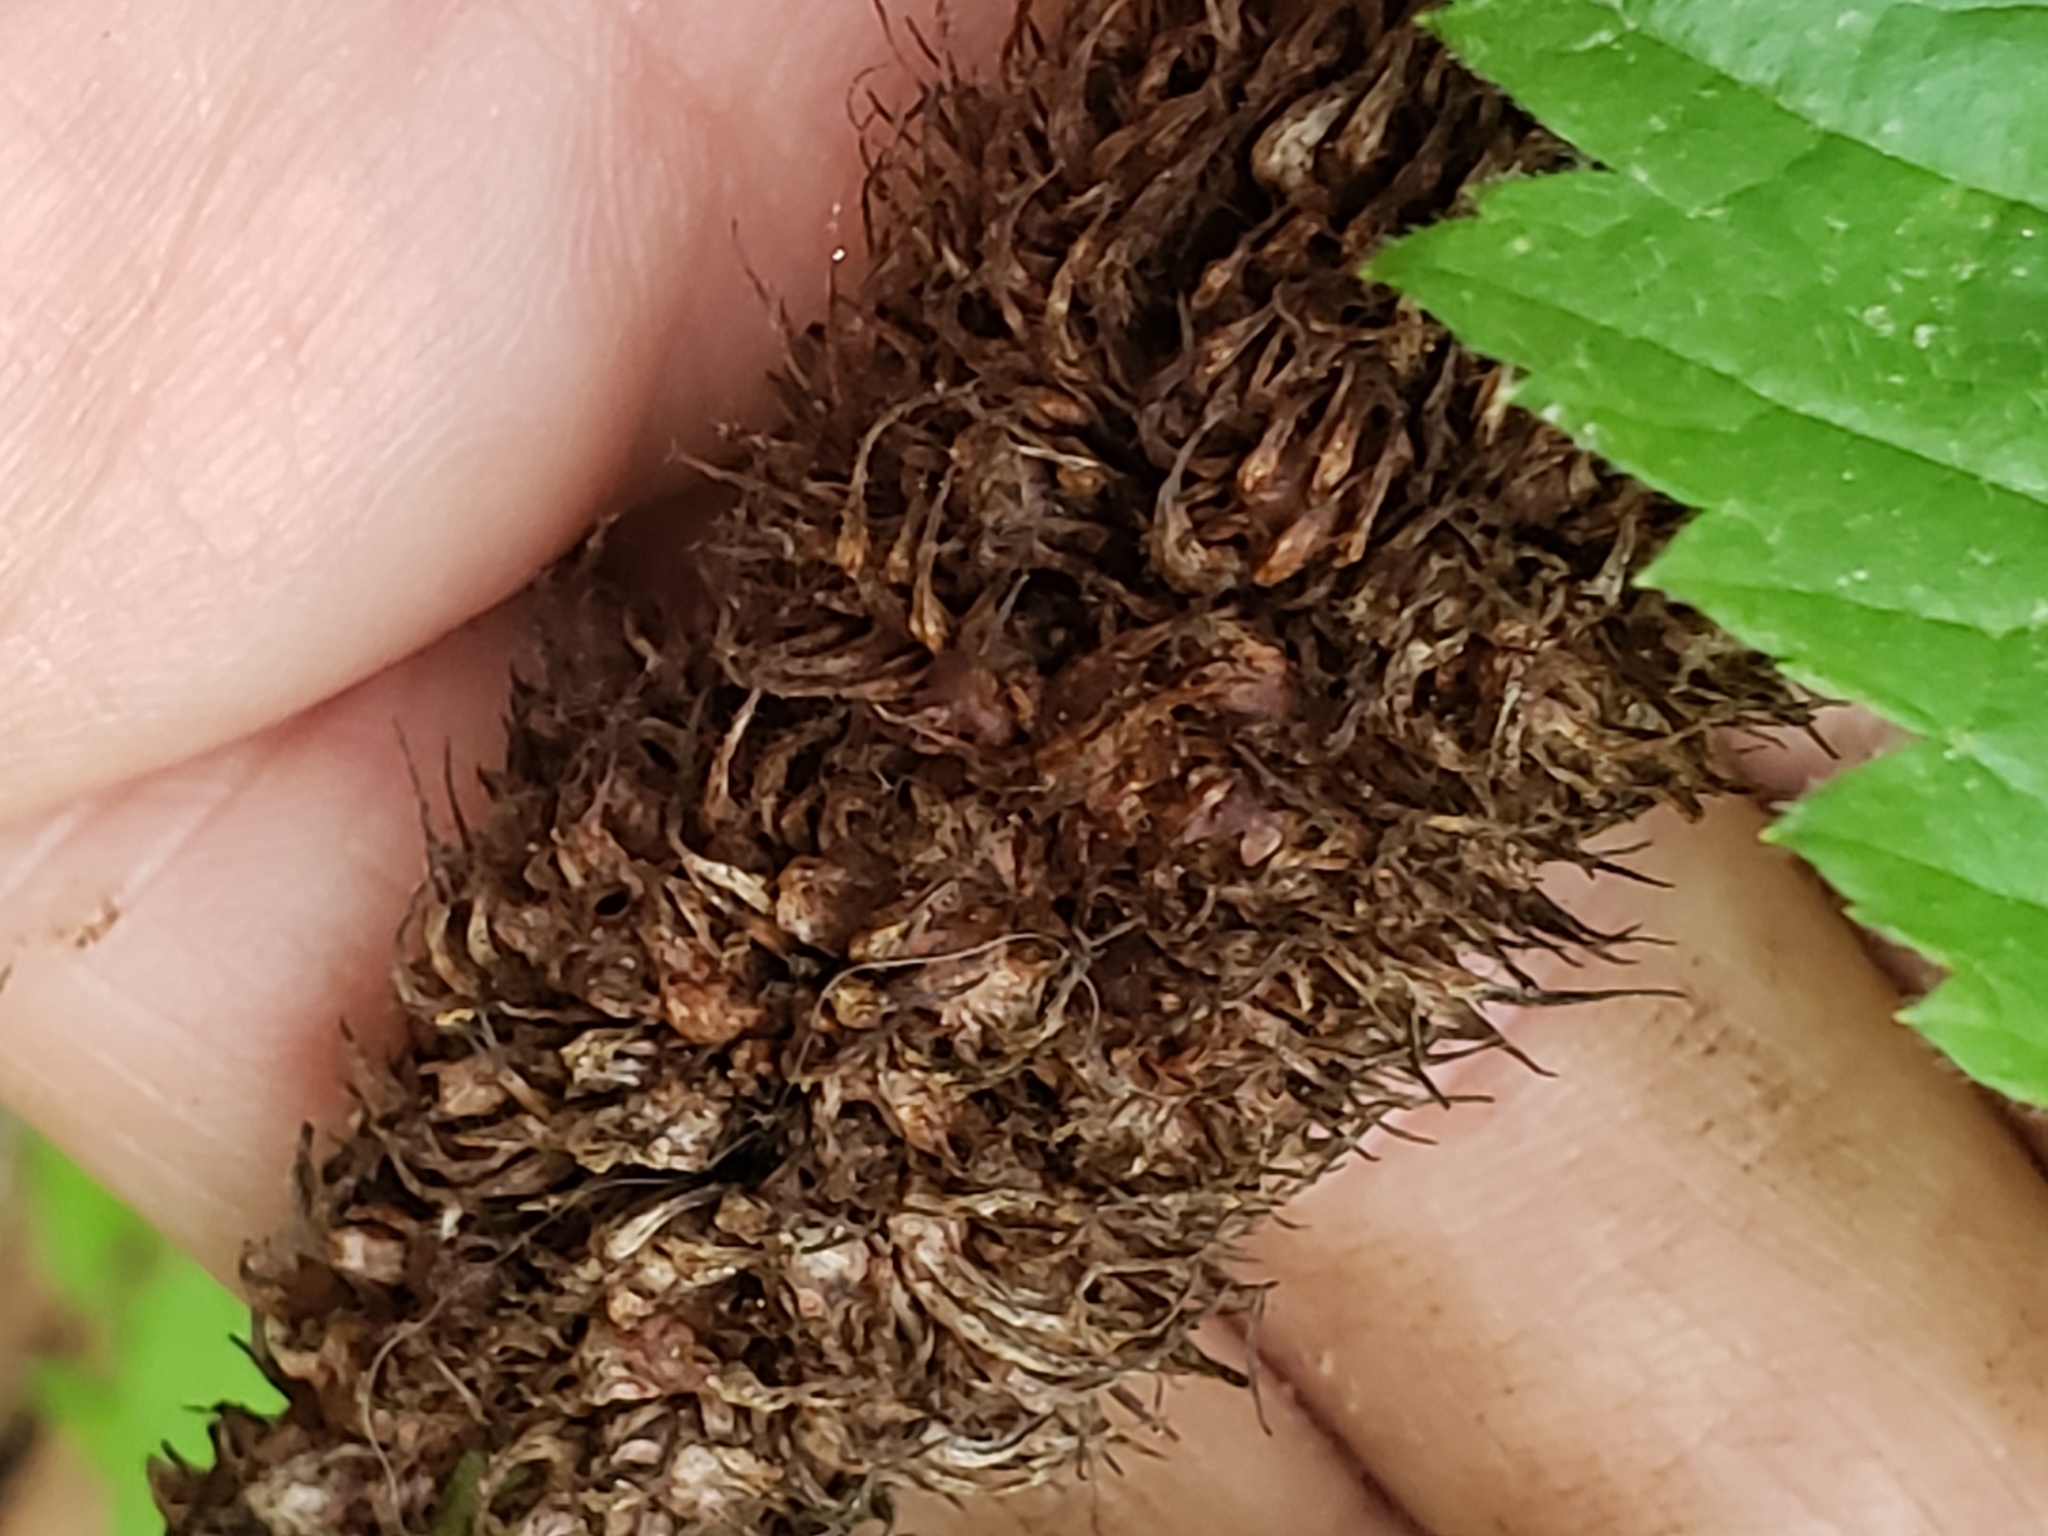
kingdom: Animalia
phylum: Arthropoda
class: Insecta
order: Hymenoptera
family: Cynipidae
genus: Diastrophus
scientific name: Diastrophus
